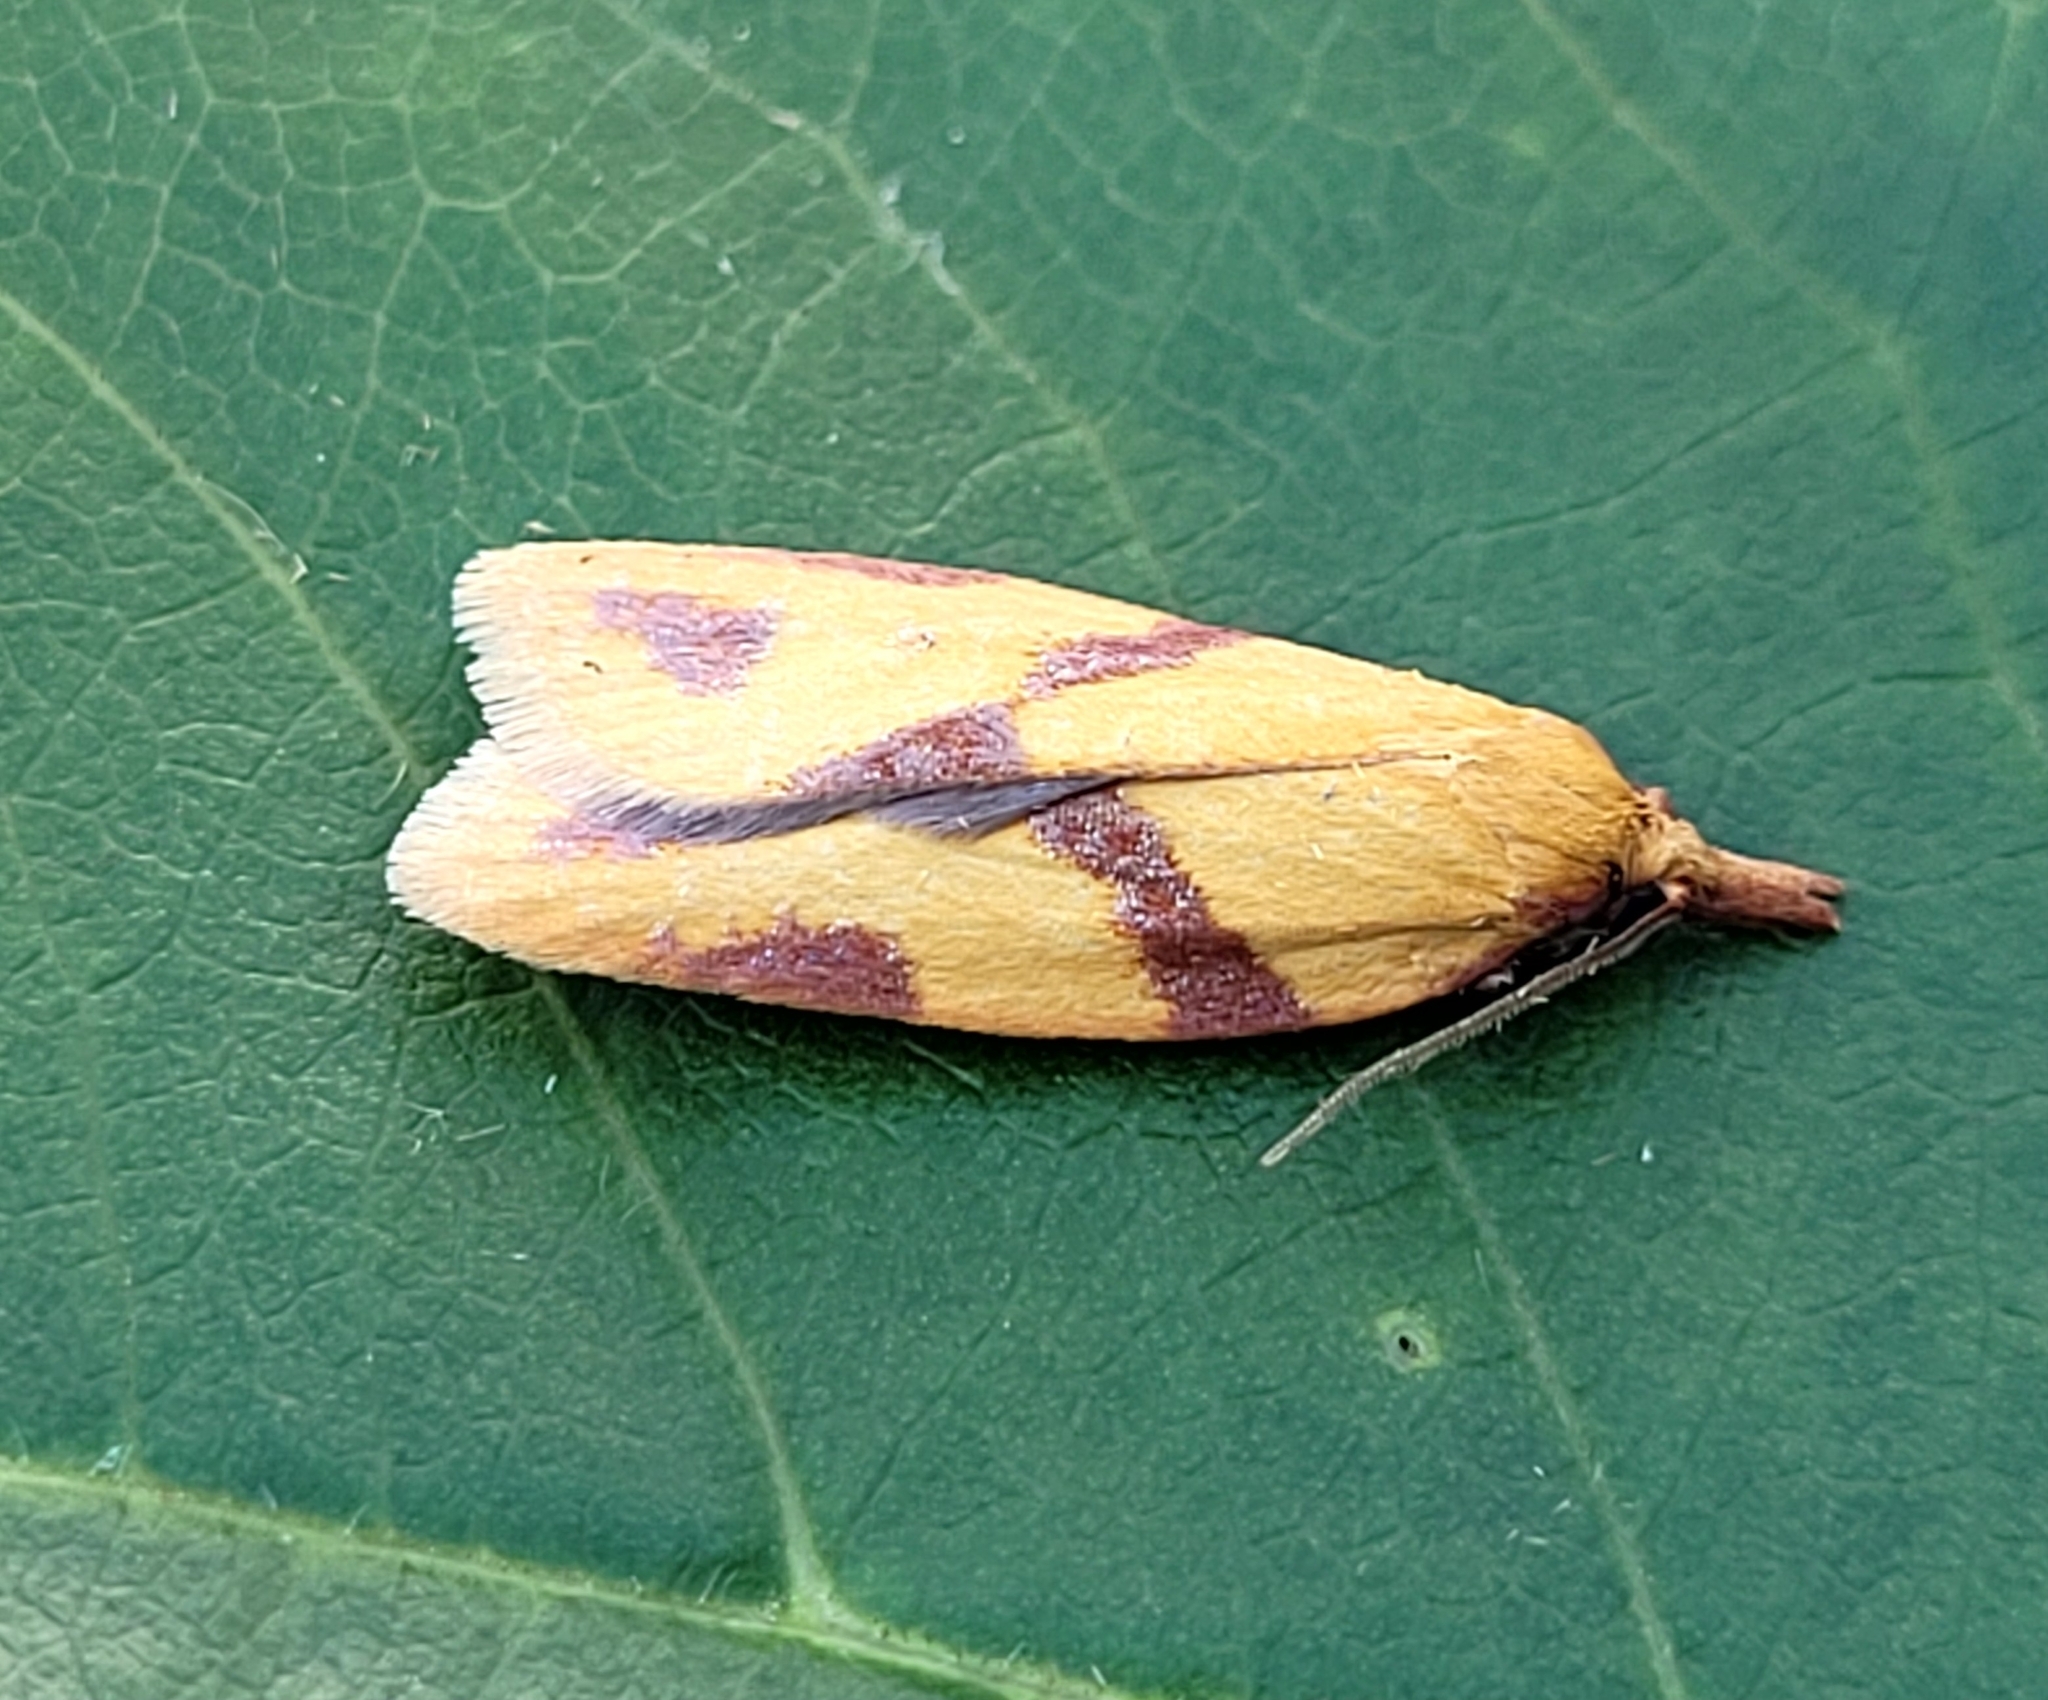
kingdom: Animalia
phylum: Arthropoda
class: Insecta
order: Lepidoptera
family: Tortricidae
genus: Sparganothis
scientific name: Sparganothis unifasciana
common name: One-lined sparganothis moth
